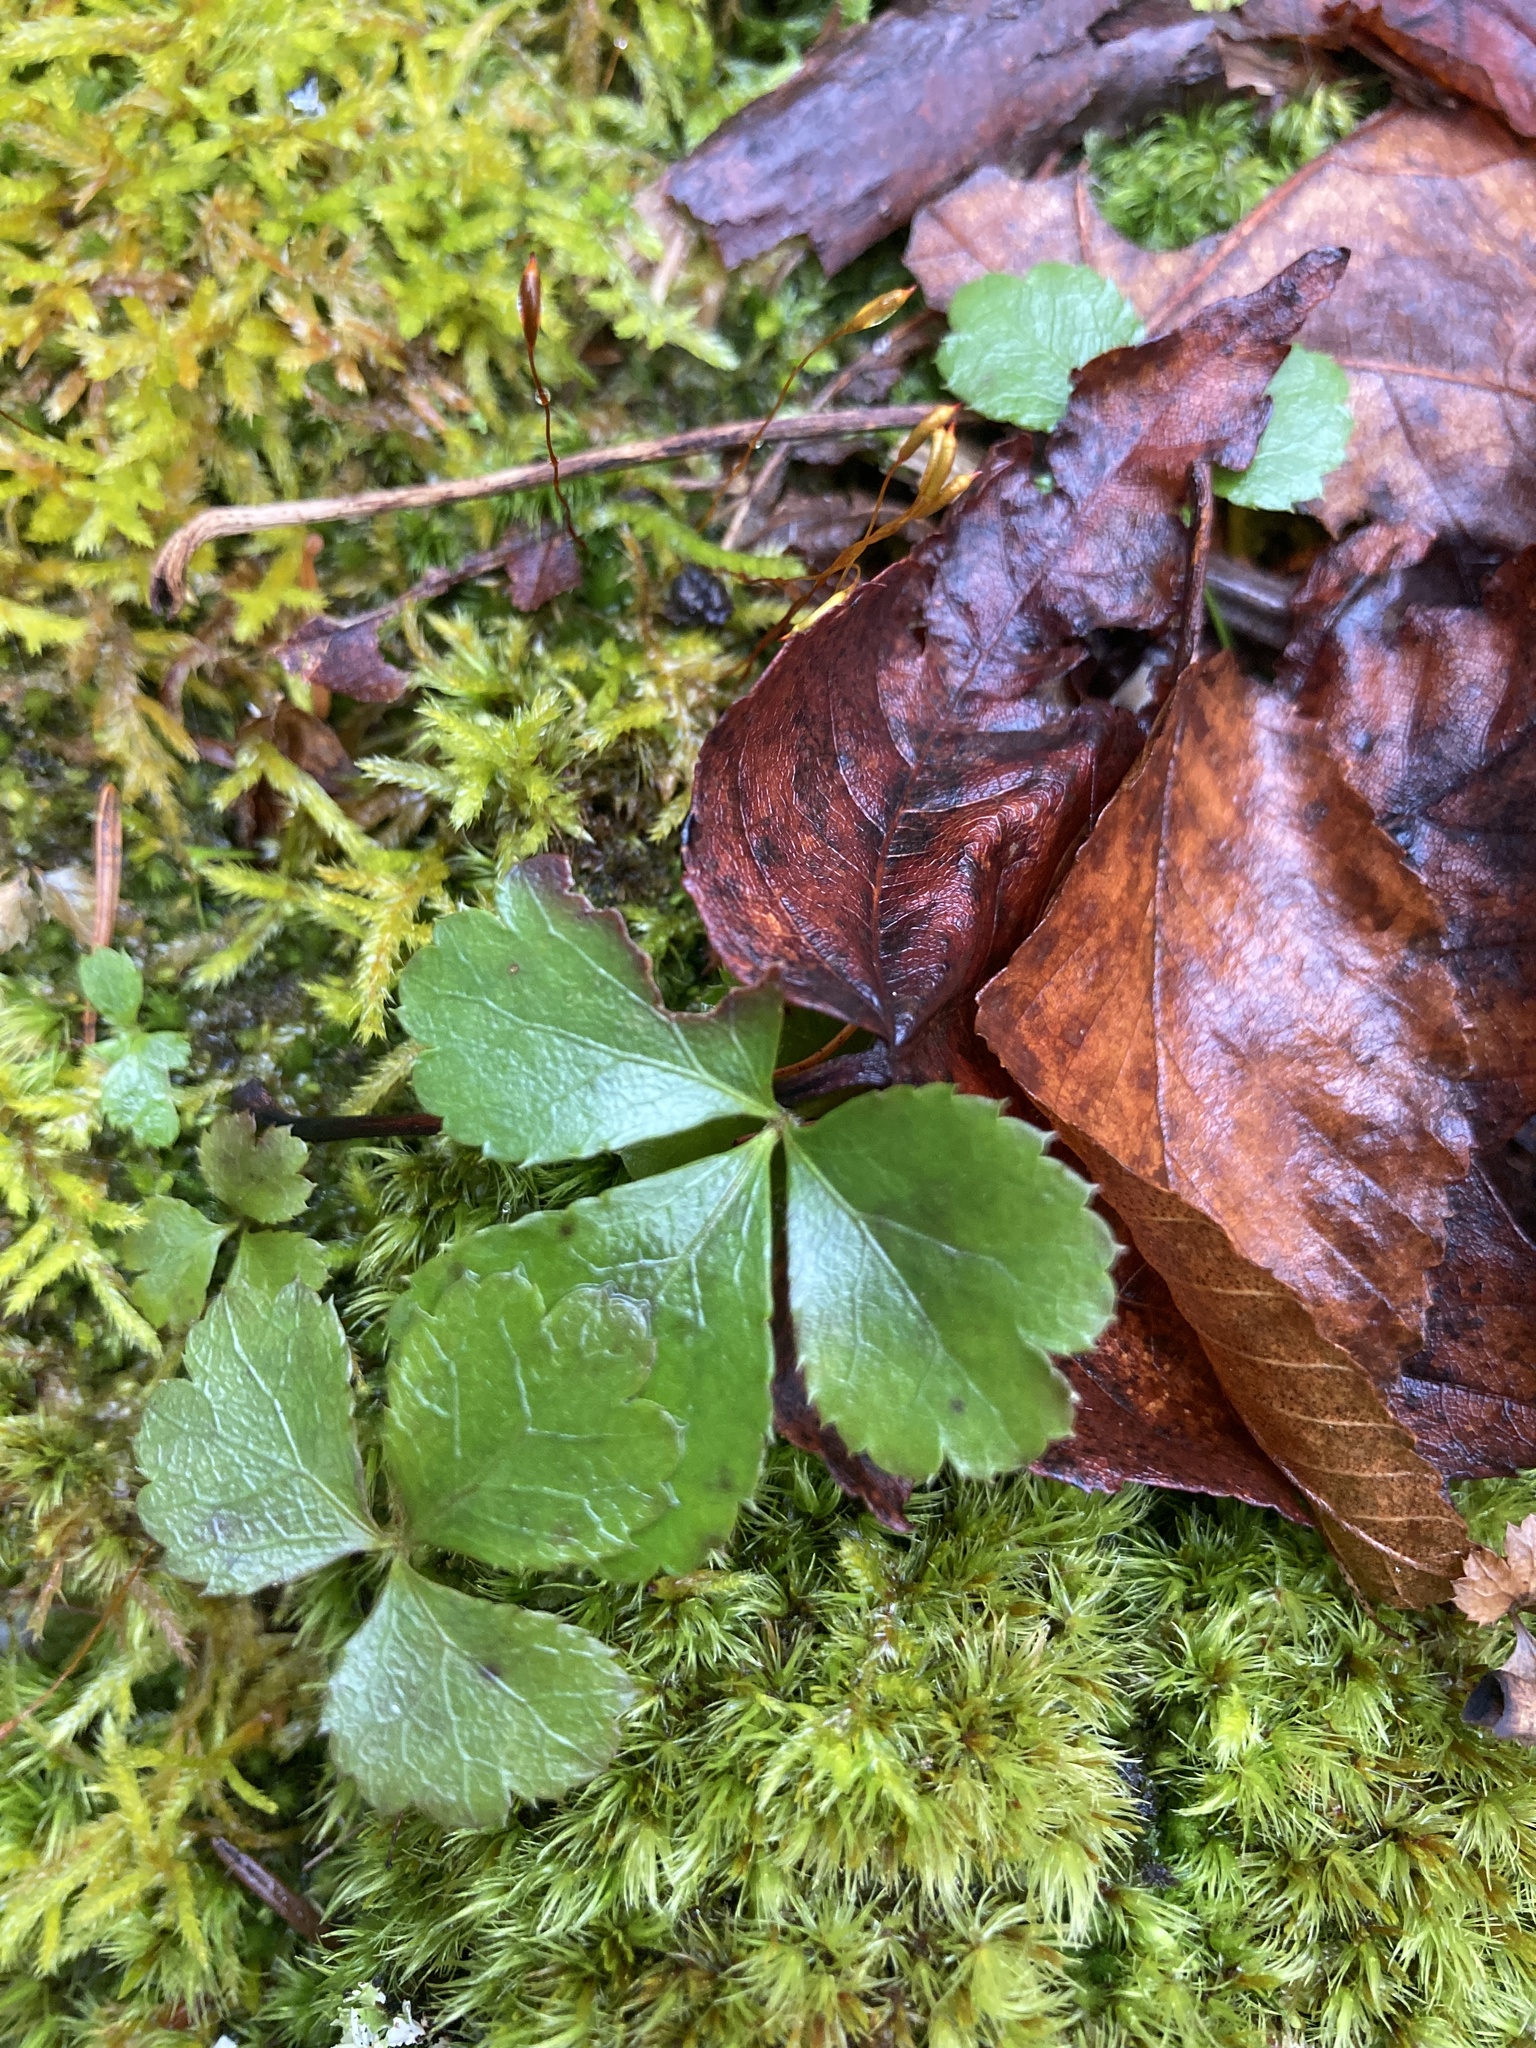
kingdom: Plantae
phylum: Tracheophyta
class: Magnoliopsida
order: Ranunculales
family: Ranunculaceae
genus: Coptis
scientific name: Coptis trifolia
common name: Canker-root
